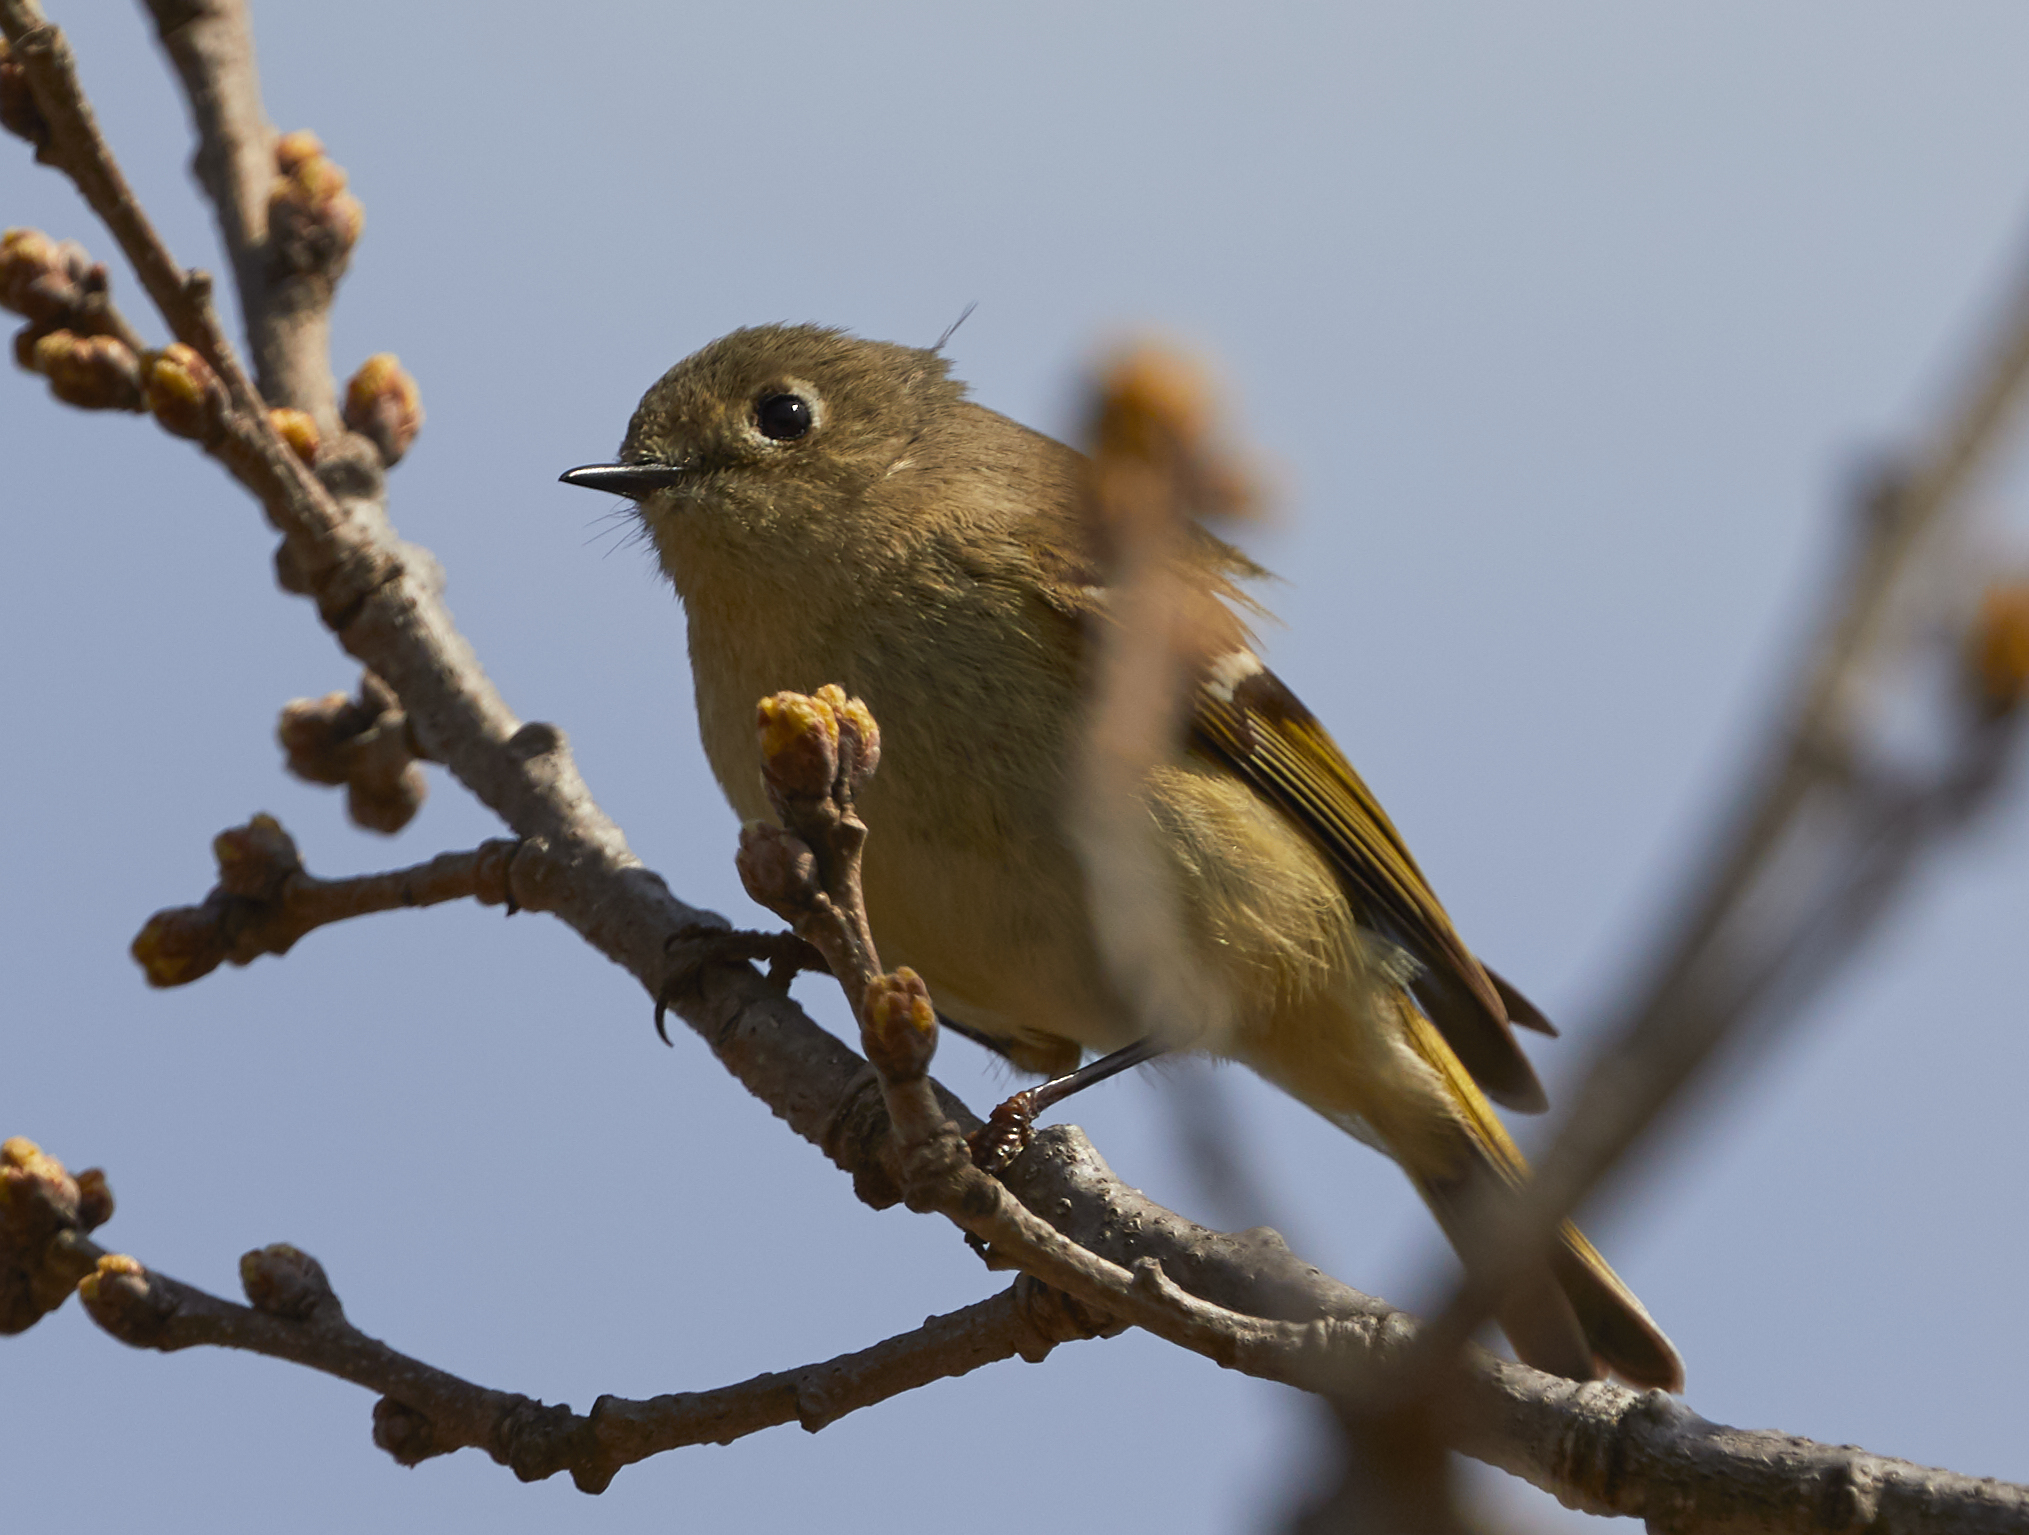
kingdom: Animalia
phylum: Chordata
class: Aves
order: Passeriformes
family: Regulidae
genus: Regulus
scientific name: Regulus calendula
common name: Ruby-crowned kinglet
